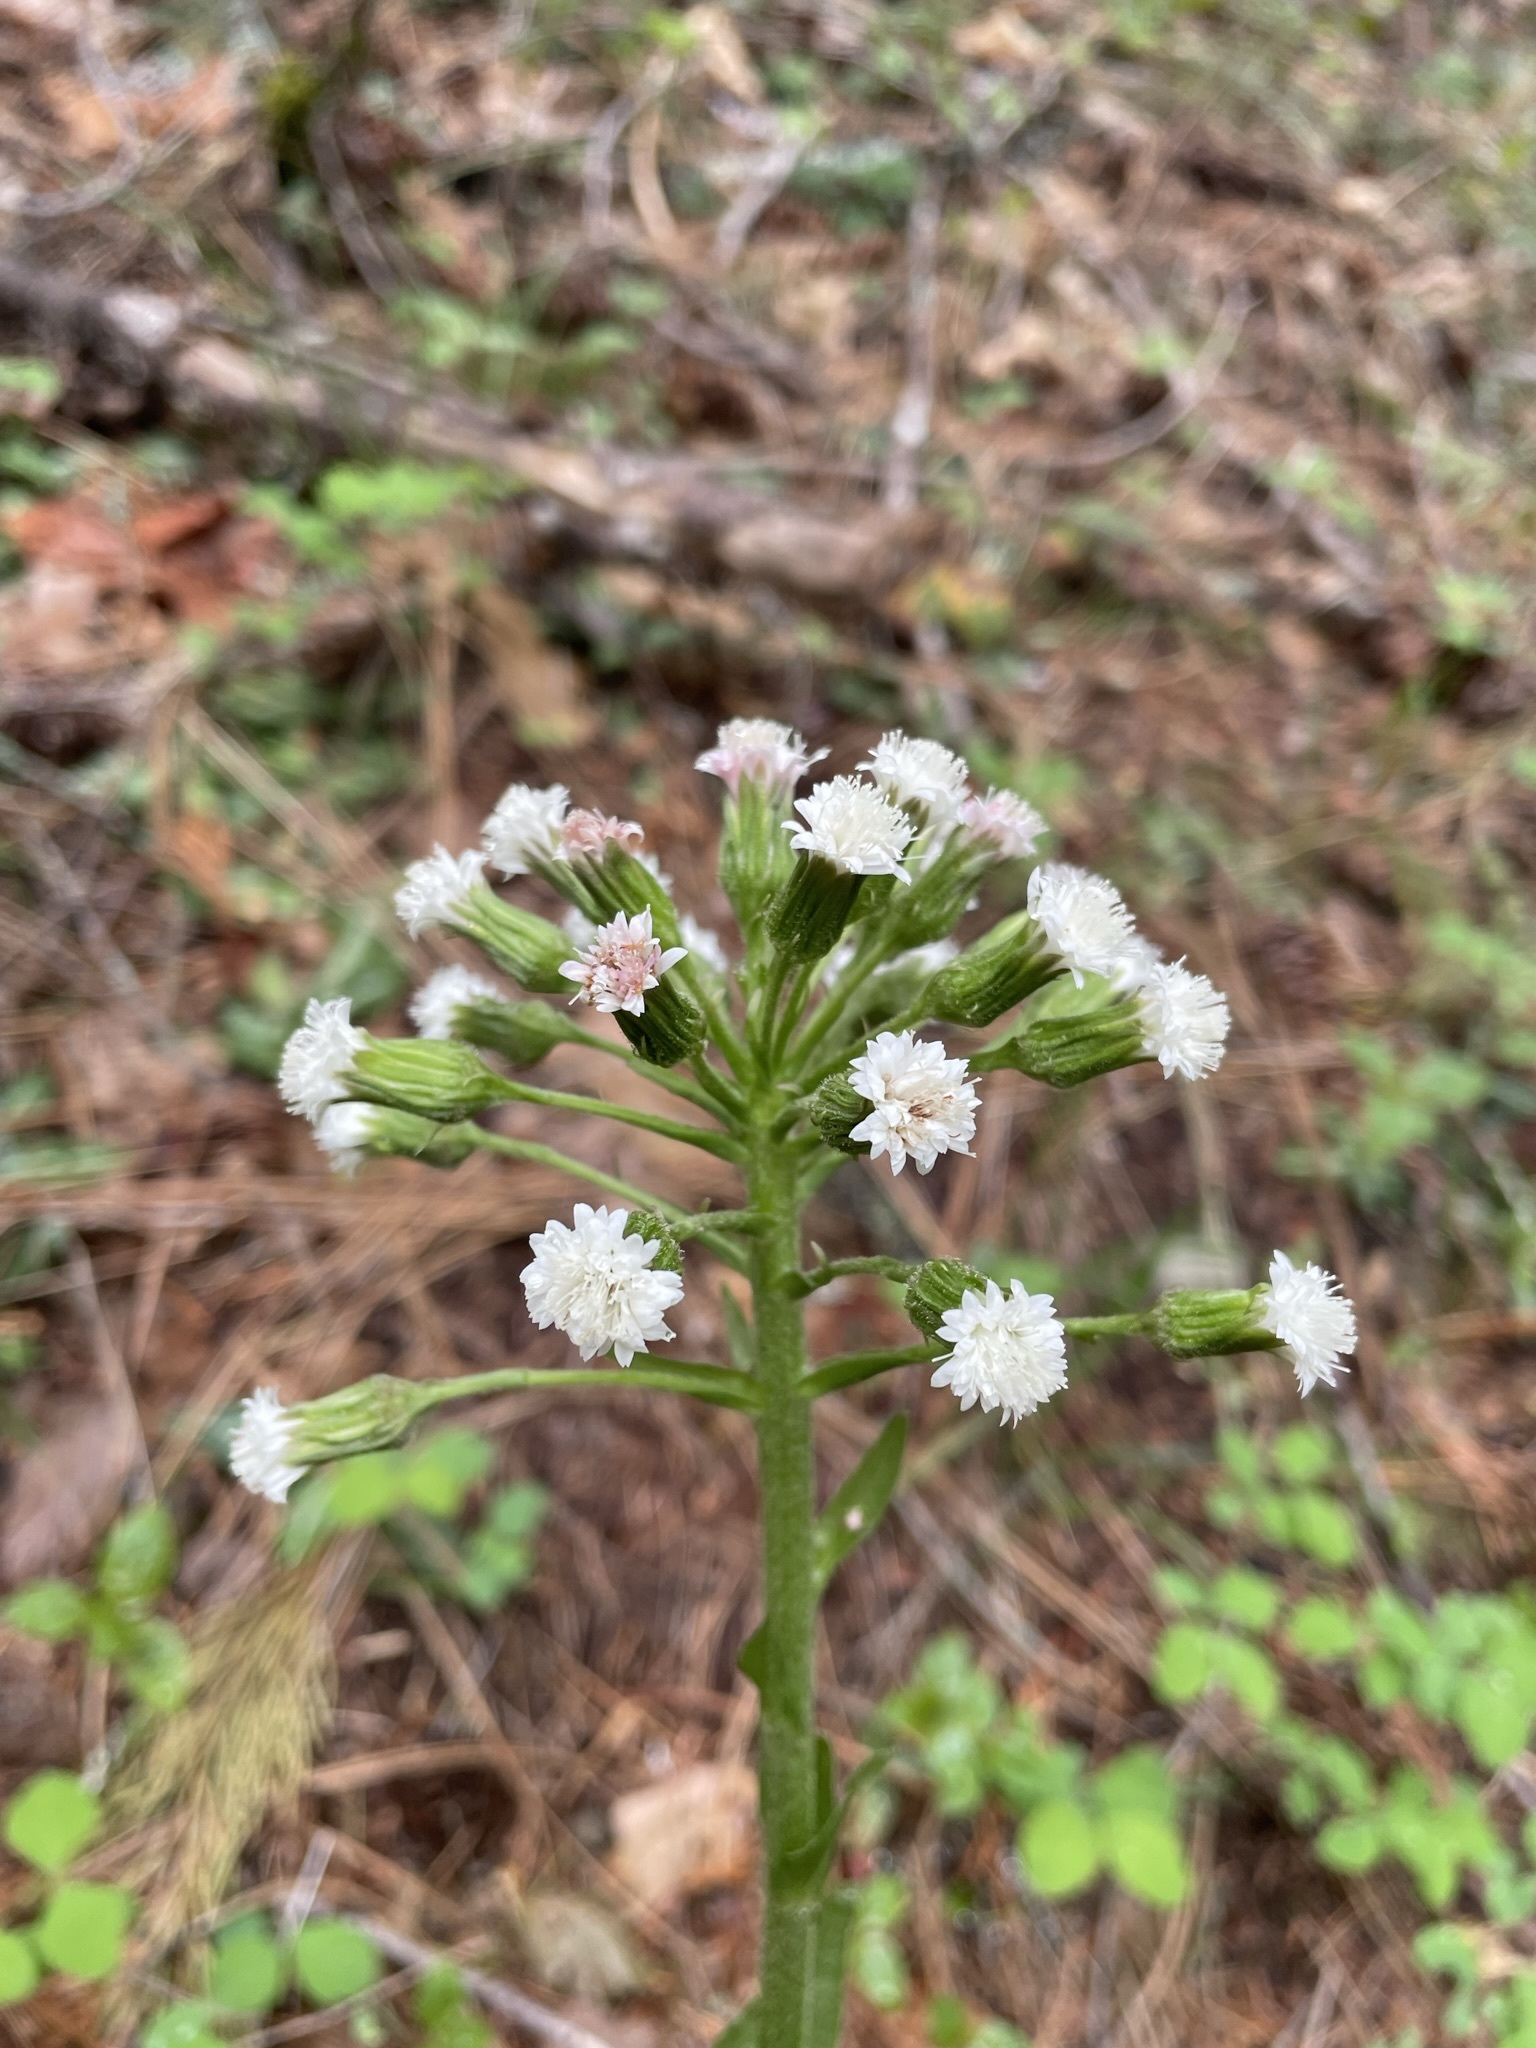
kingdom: Plantae
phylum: Tracheophyta
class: Magnoliopsida
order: Asterales
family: Asteraceae
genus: Petasites
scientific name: Petasites frigidus
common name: Arctic butterbur
